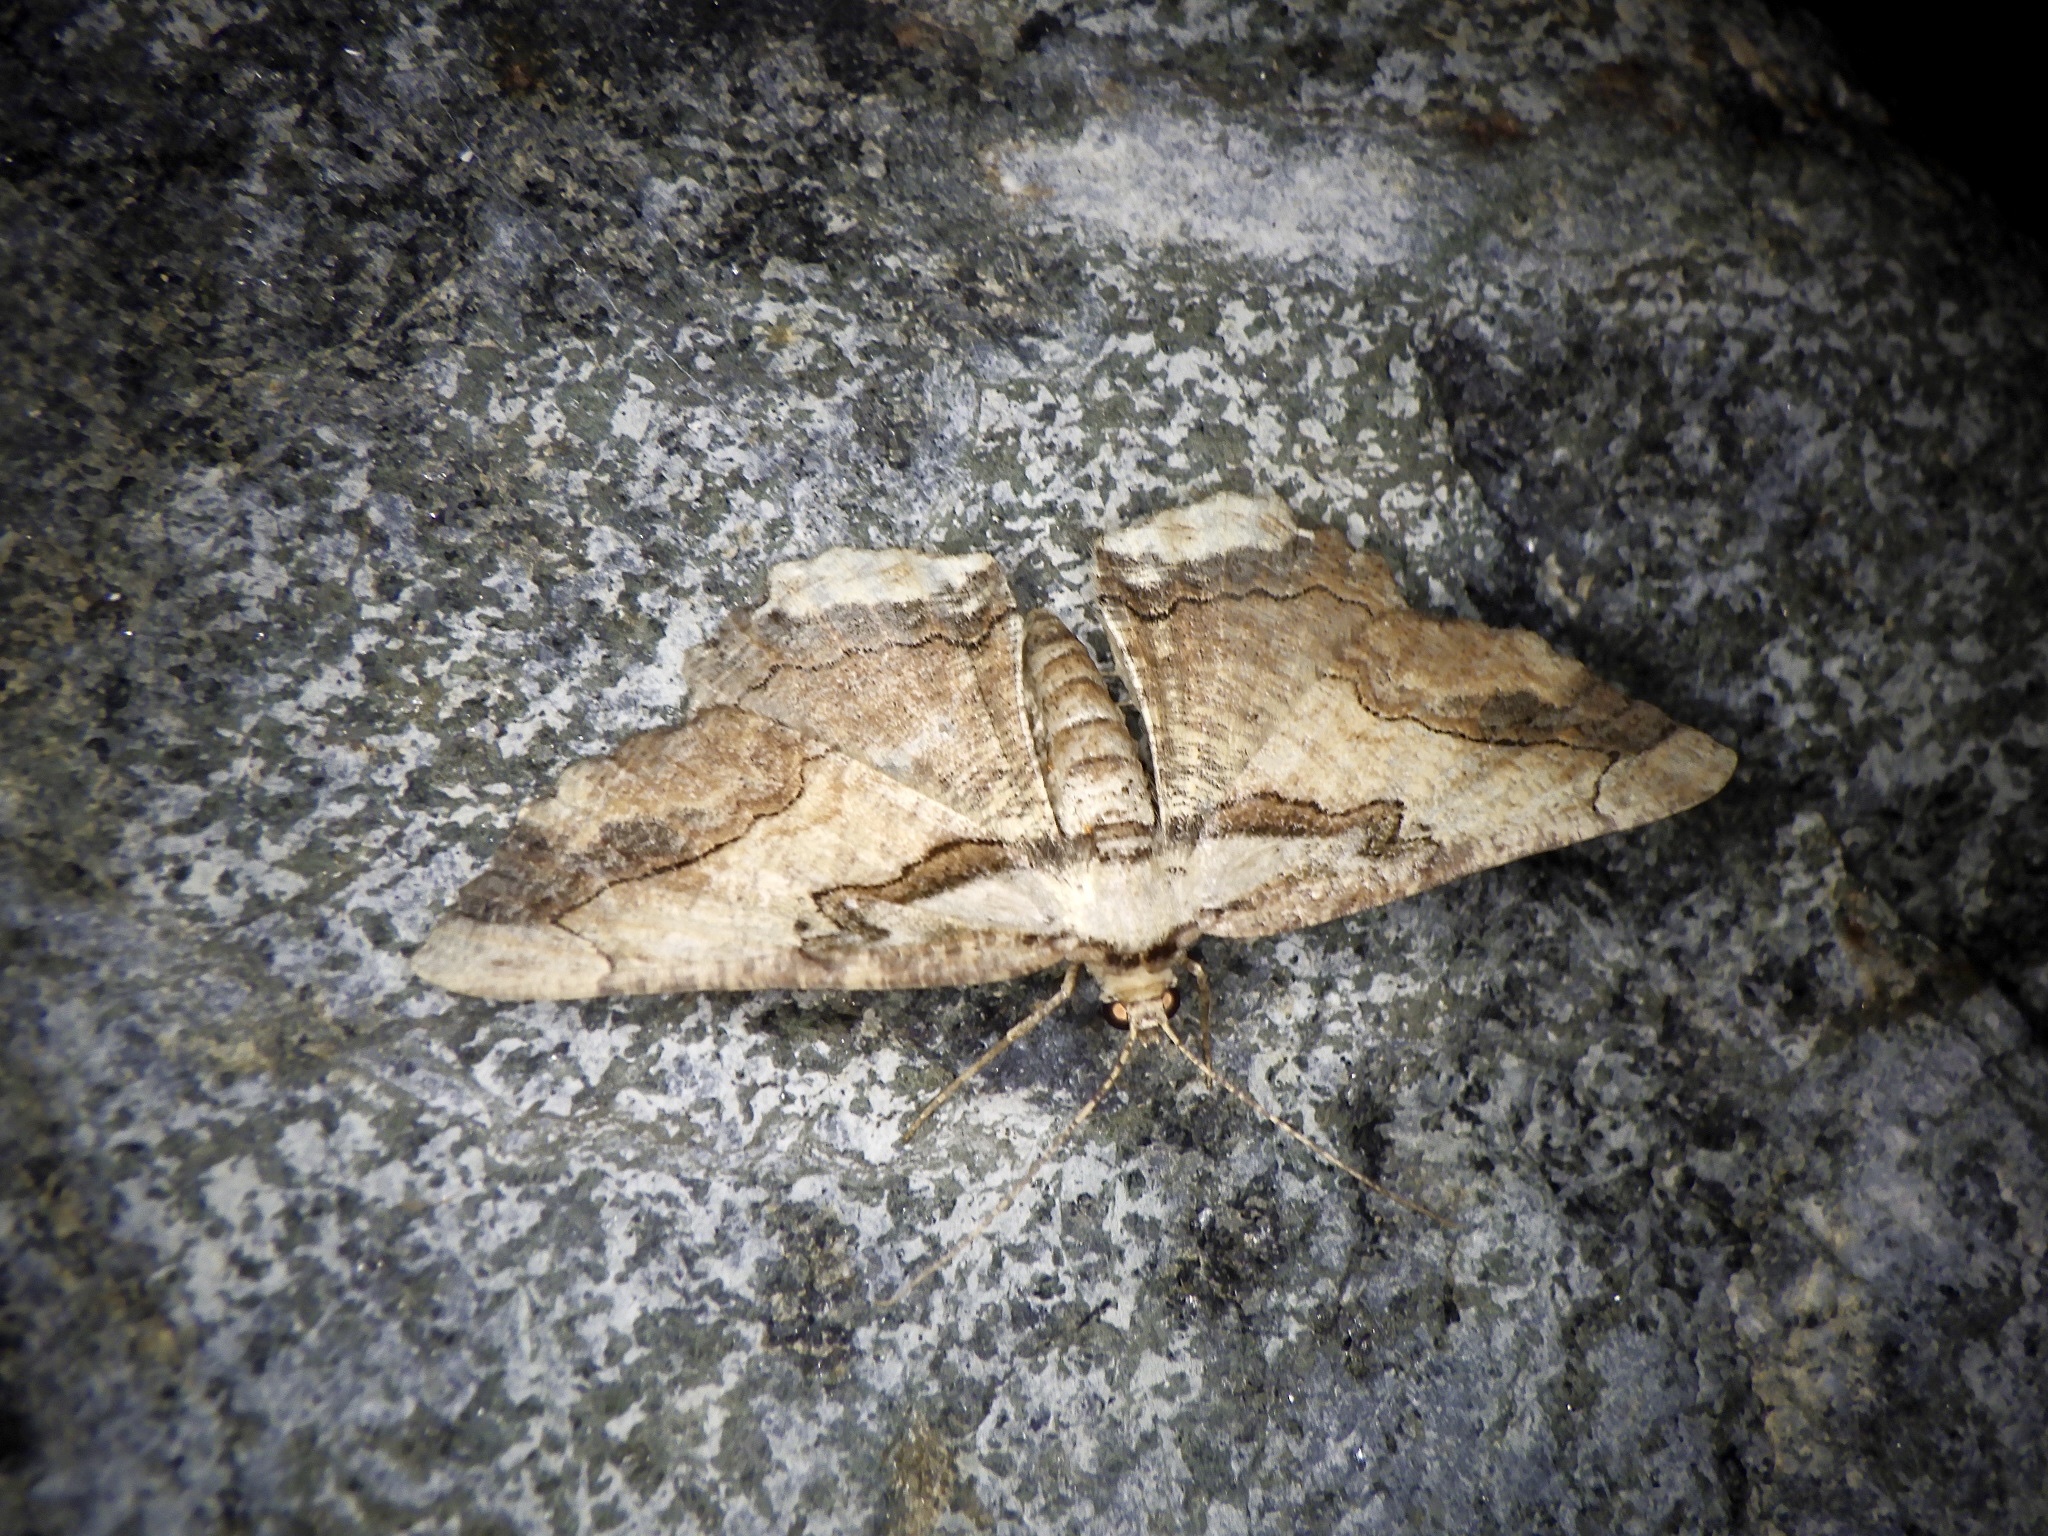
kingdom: Animalia
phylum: Arthropoda
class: Insecta
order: Lepidoptera
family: Geometridae
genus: Menophra
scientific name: Menophra senilis
